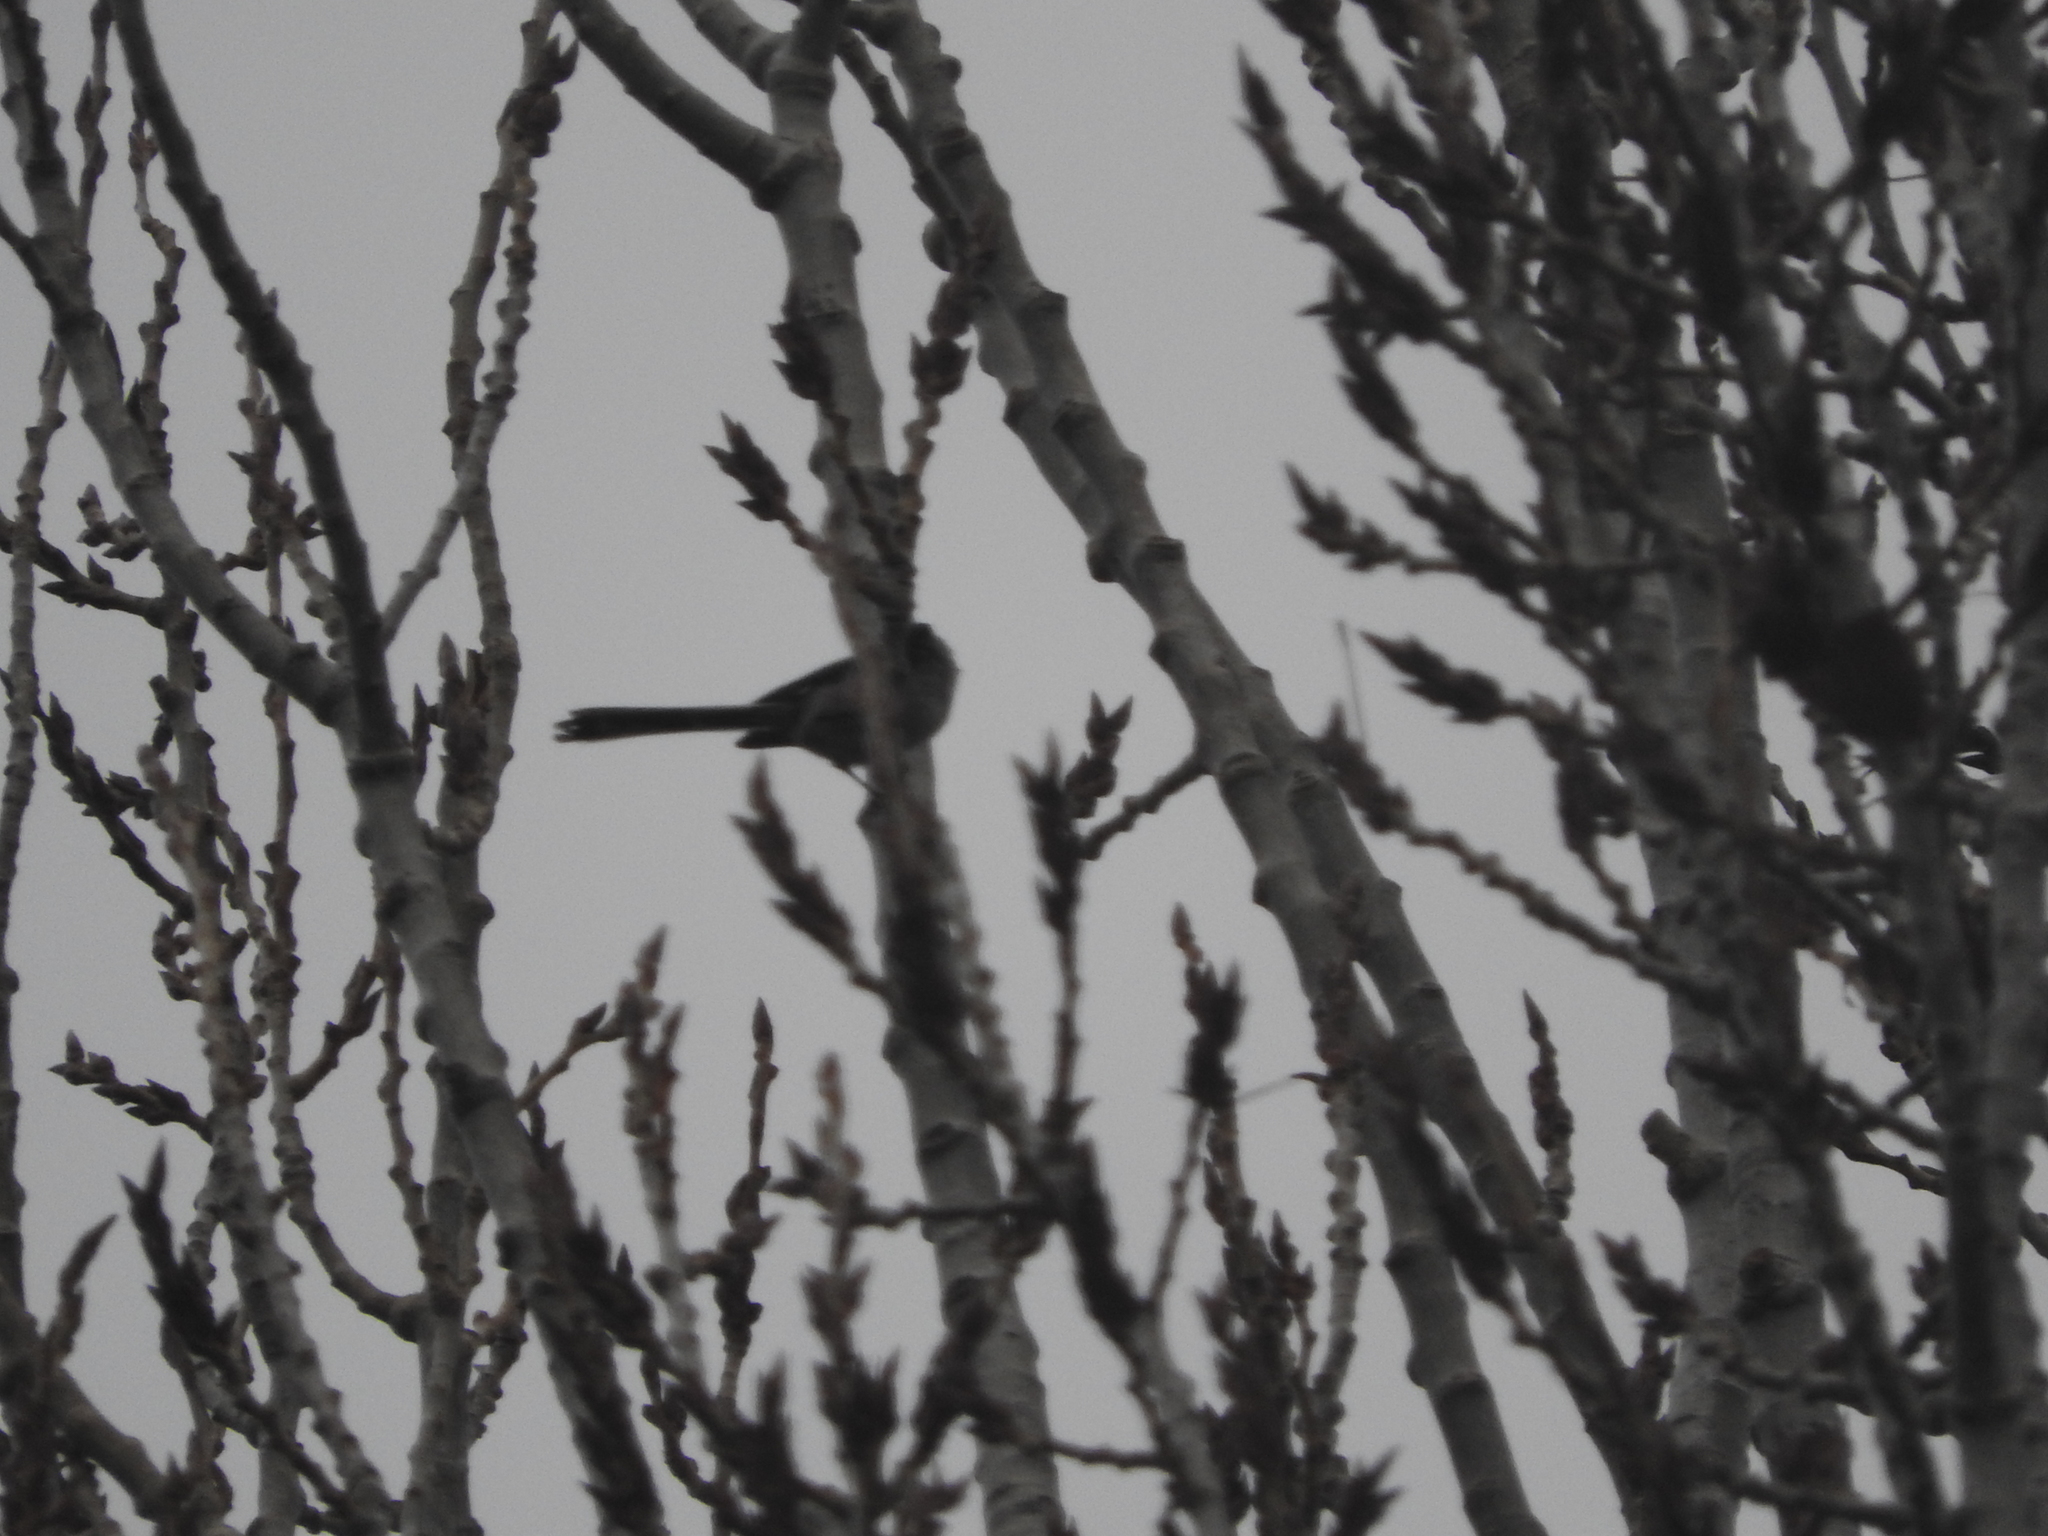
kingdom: Animalia
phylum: Chordata
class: Aves
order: Passeriformes
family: Aegithalidae
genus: Aegithalos
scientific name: Aegithalos caudatus
